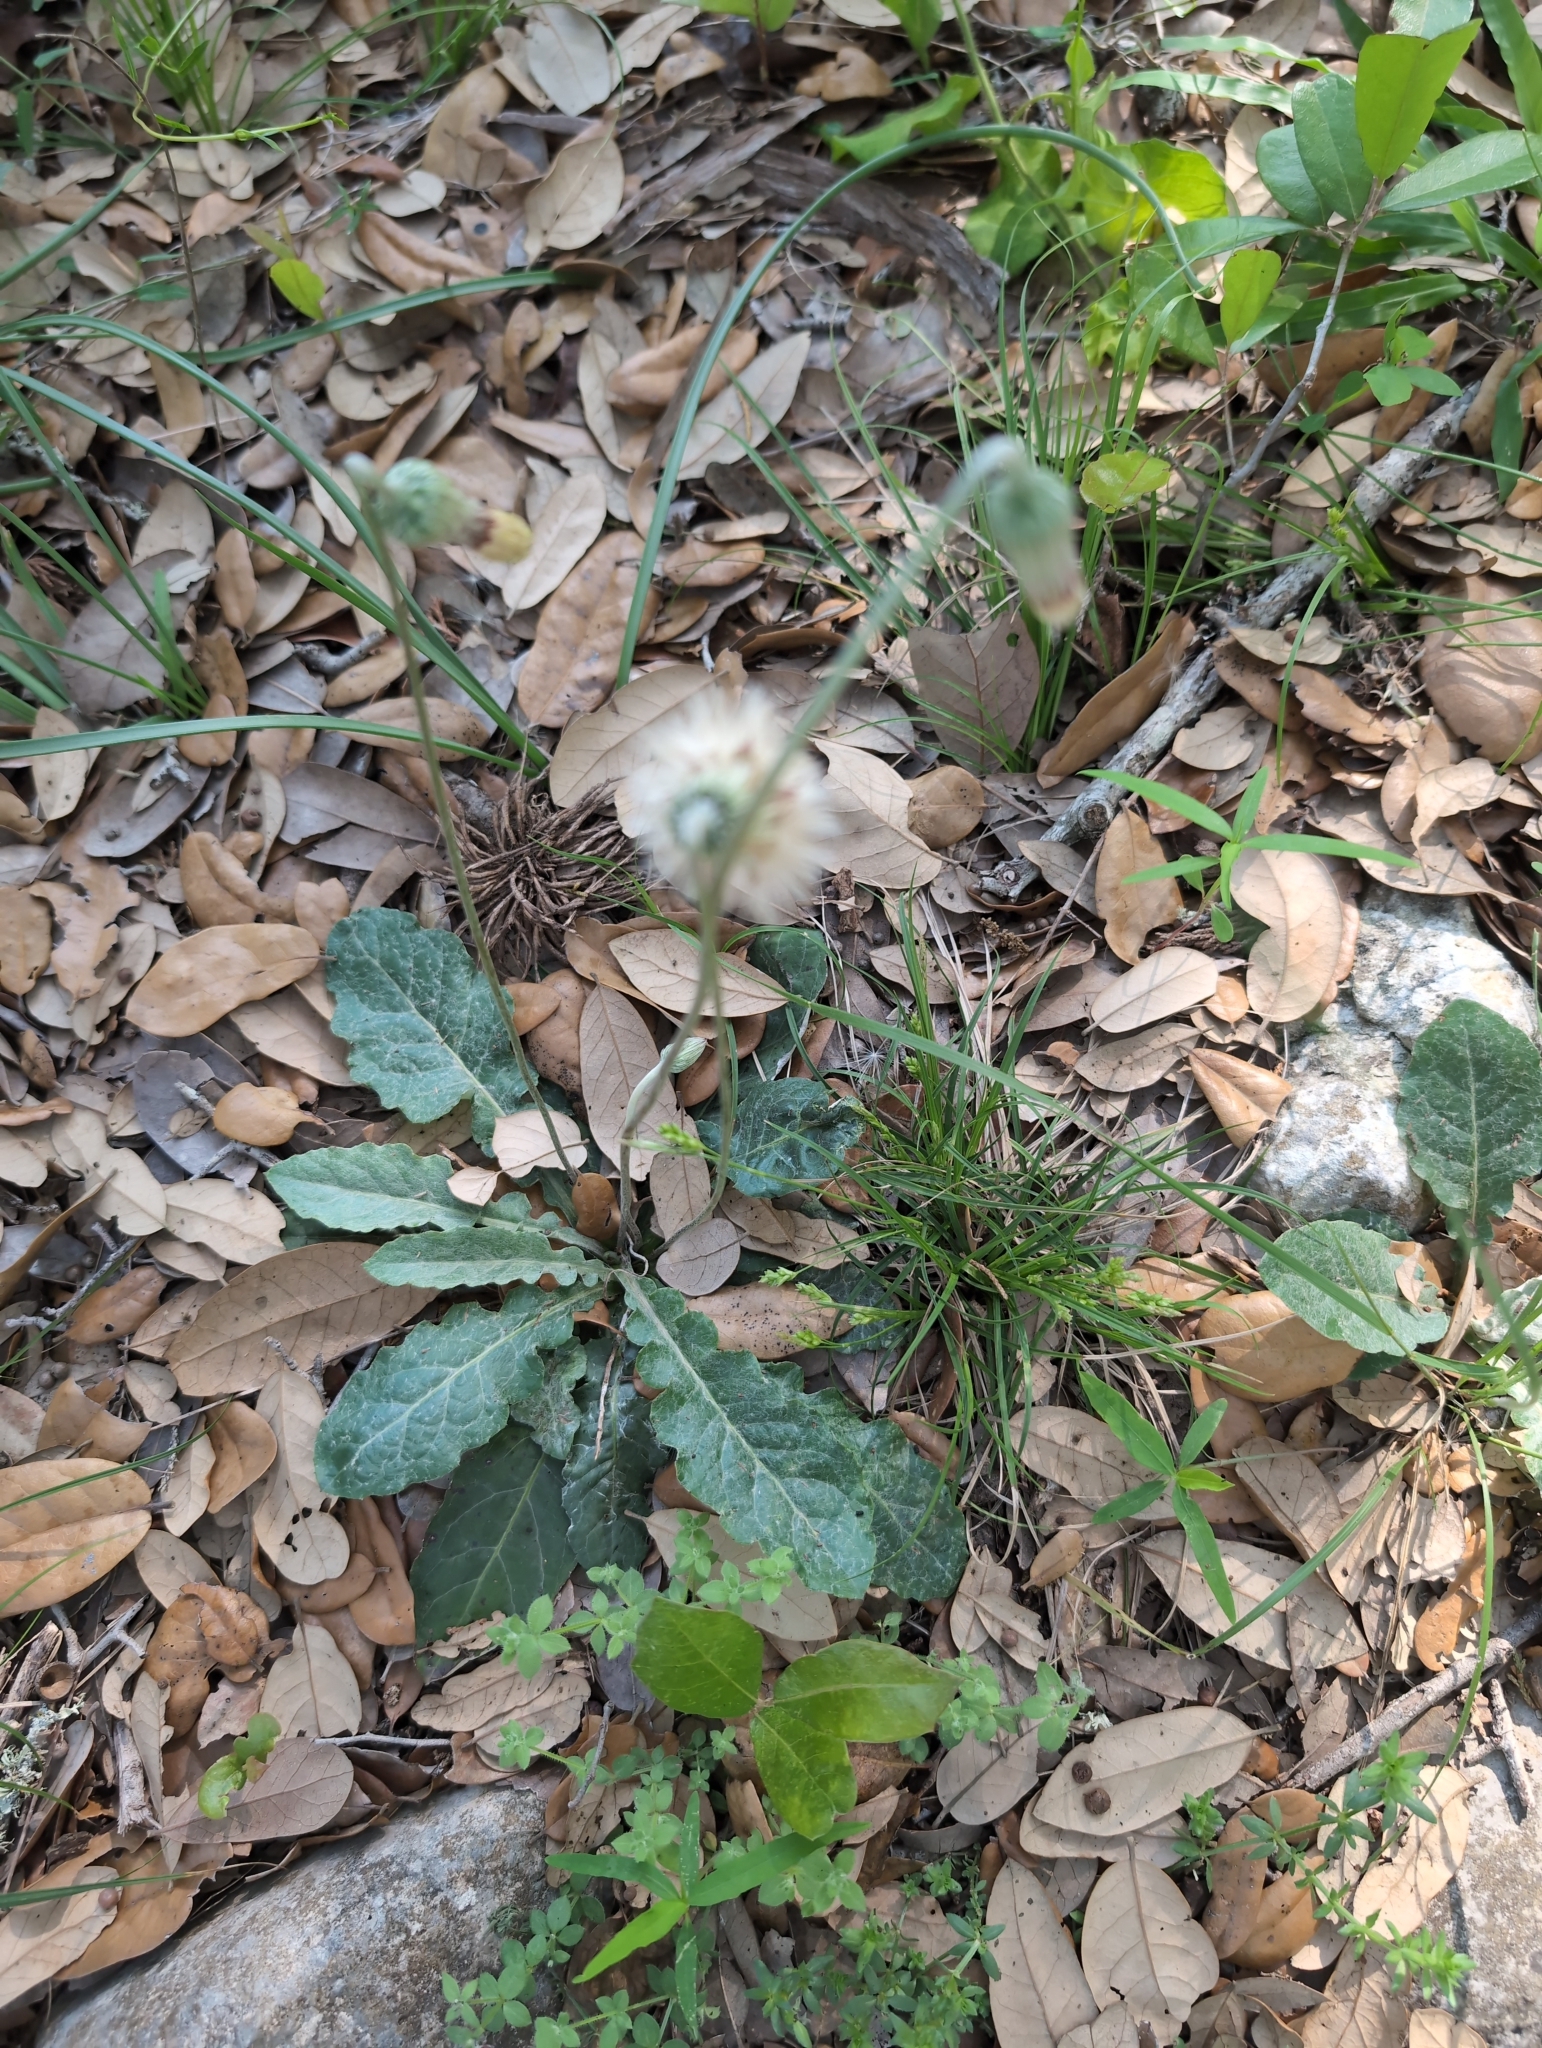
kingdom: Plantae
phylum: Tracheophyta
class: Magnoliopsida
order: Asterales
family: Asteraceae
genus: Chaptalia
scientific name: Chaptalia texana
